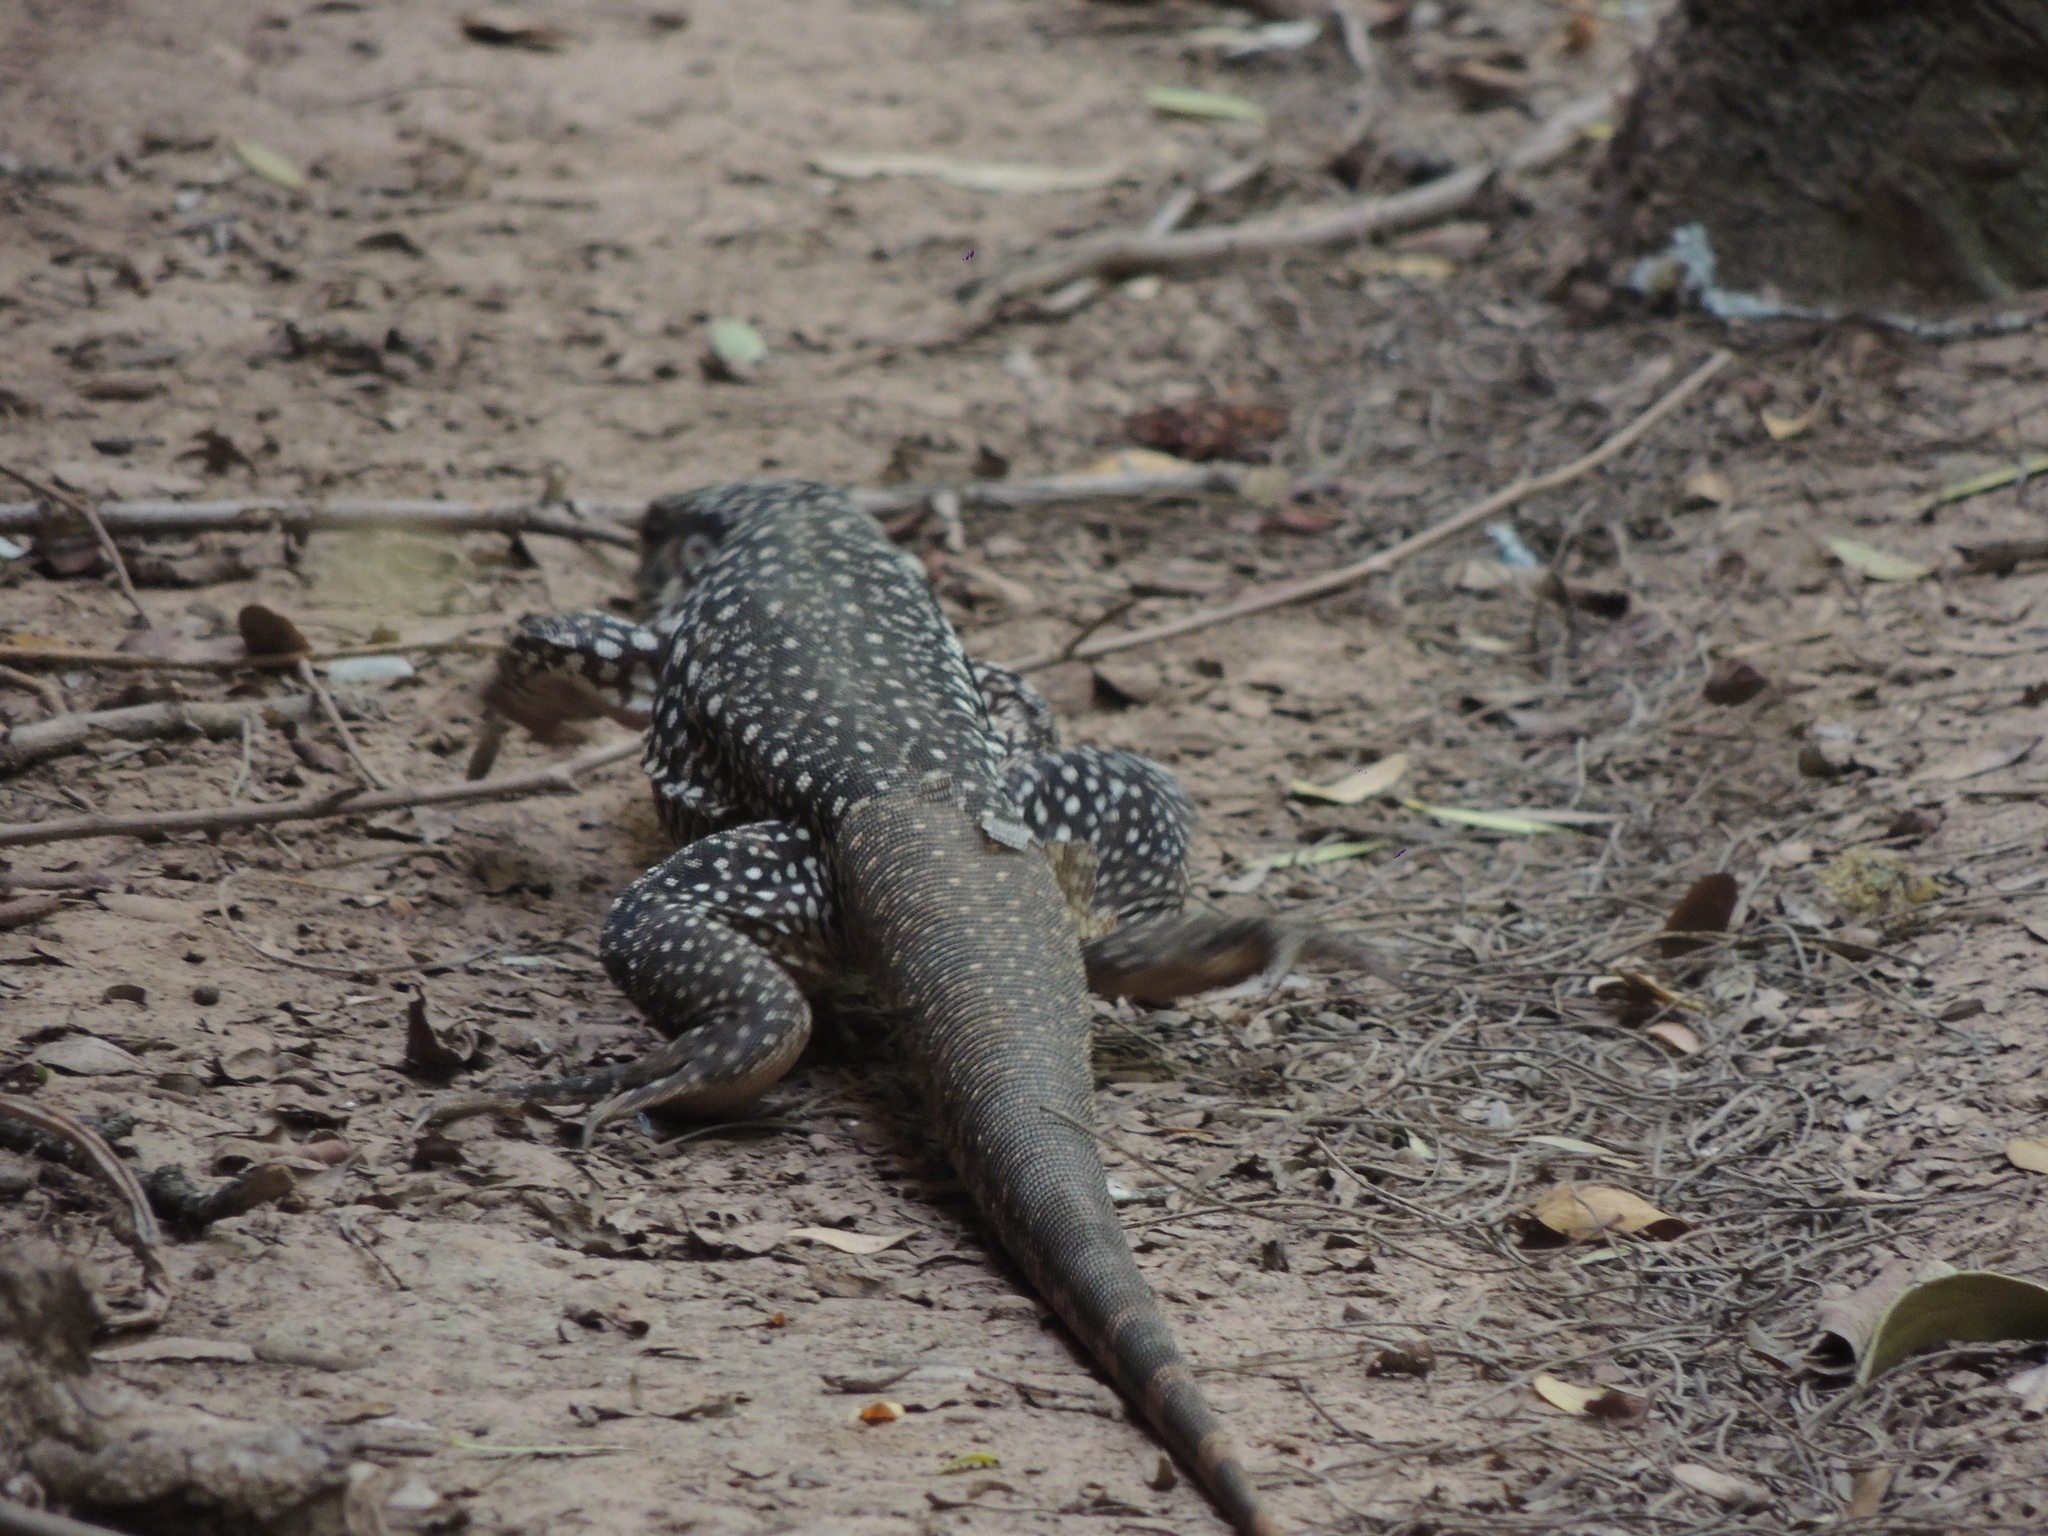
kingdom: Animalia
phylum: Chordata
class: Squamata
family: Teiidae
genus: Salvator
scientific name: Salvator merianae
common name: Argentine black and white tegu
